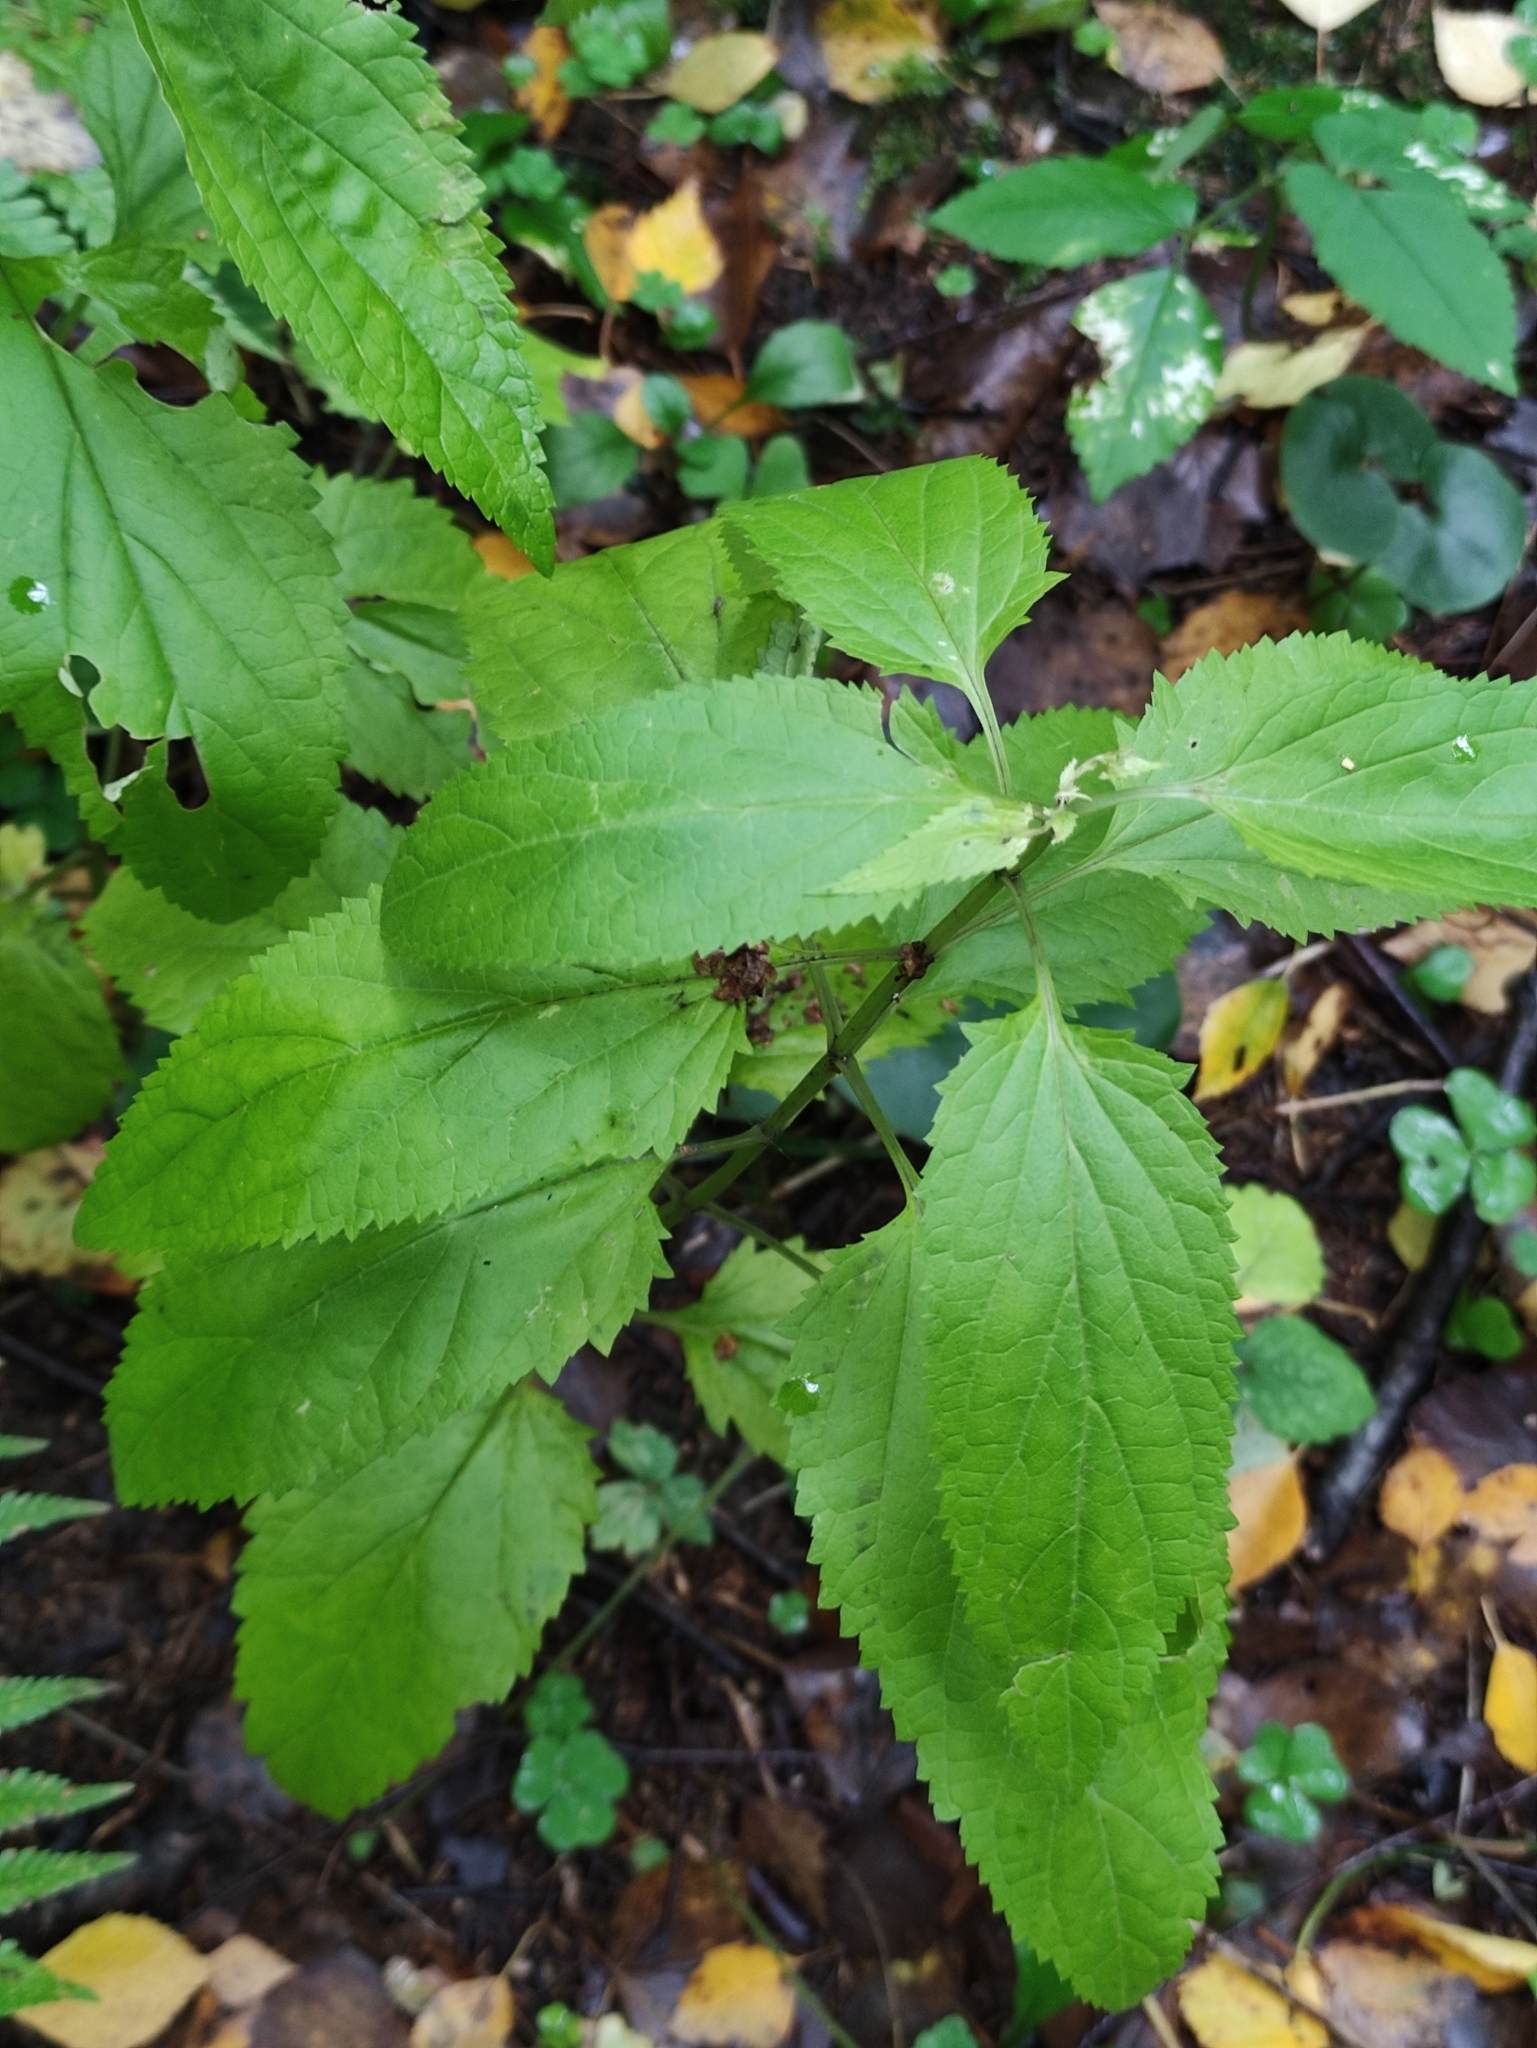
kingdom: Plantae
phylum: Tracheophyta
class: Magnoliopsida
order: Lamiales
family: Scrophulariaceae
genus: Scrophularia
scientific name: Scrophularia nodosa
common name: Common figwort
